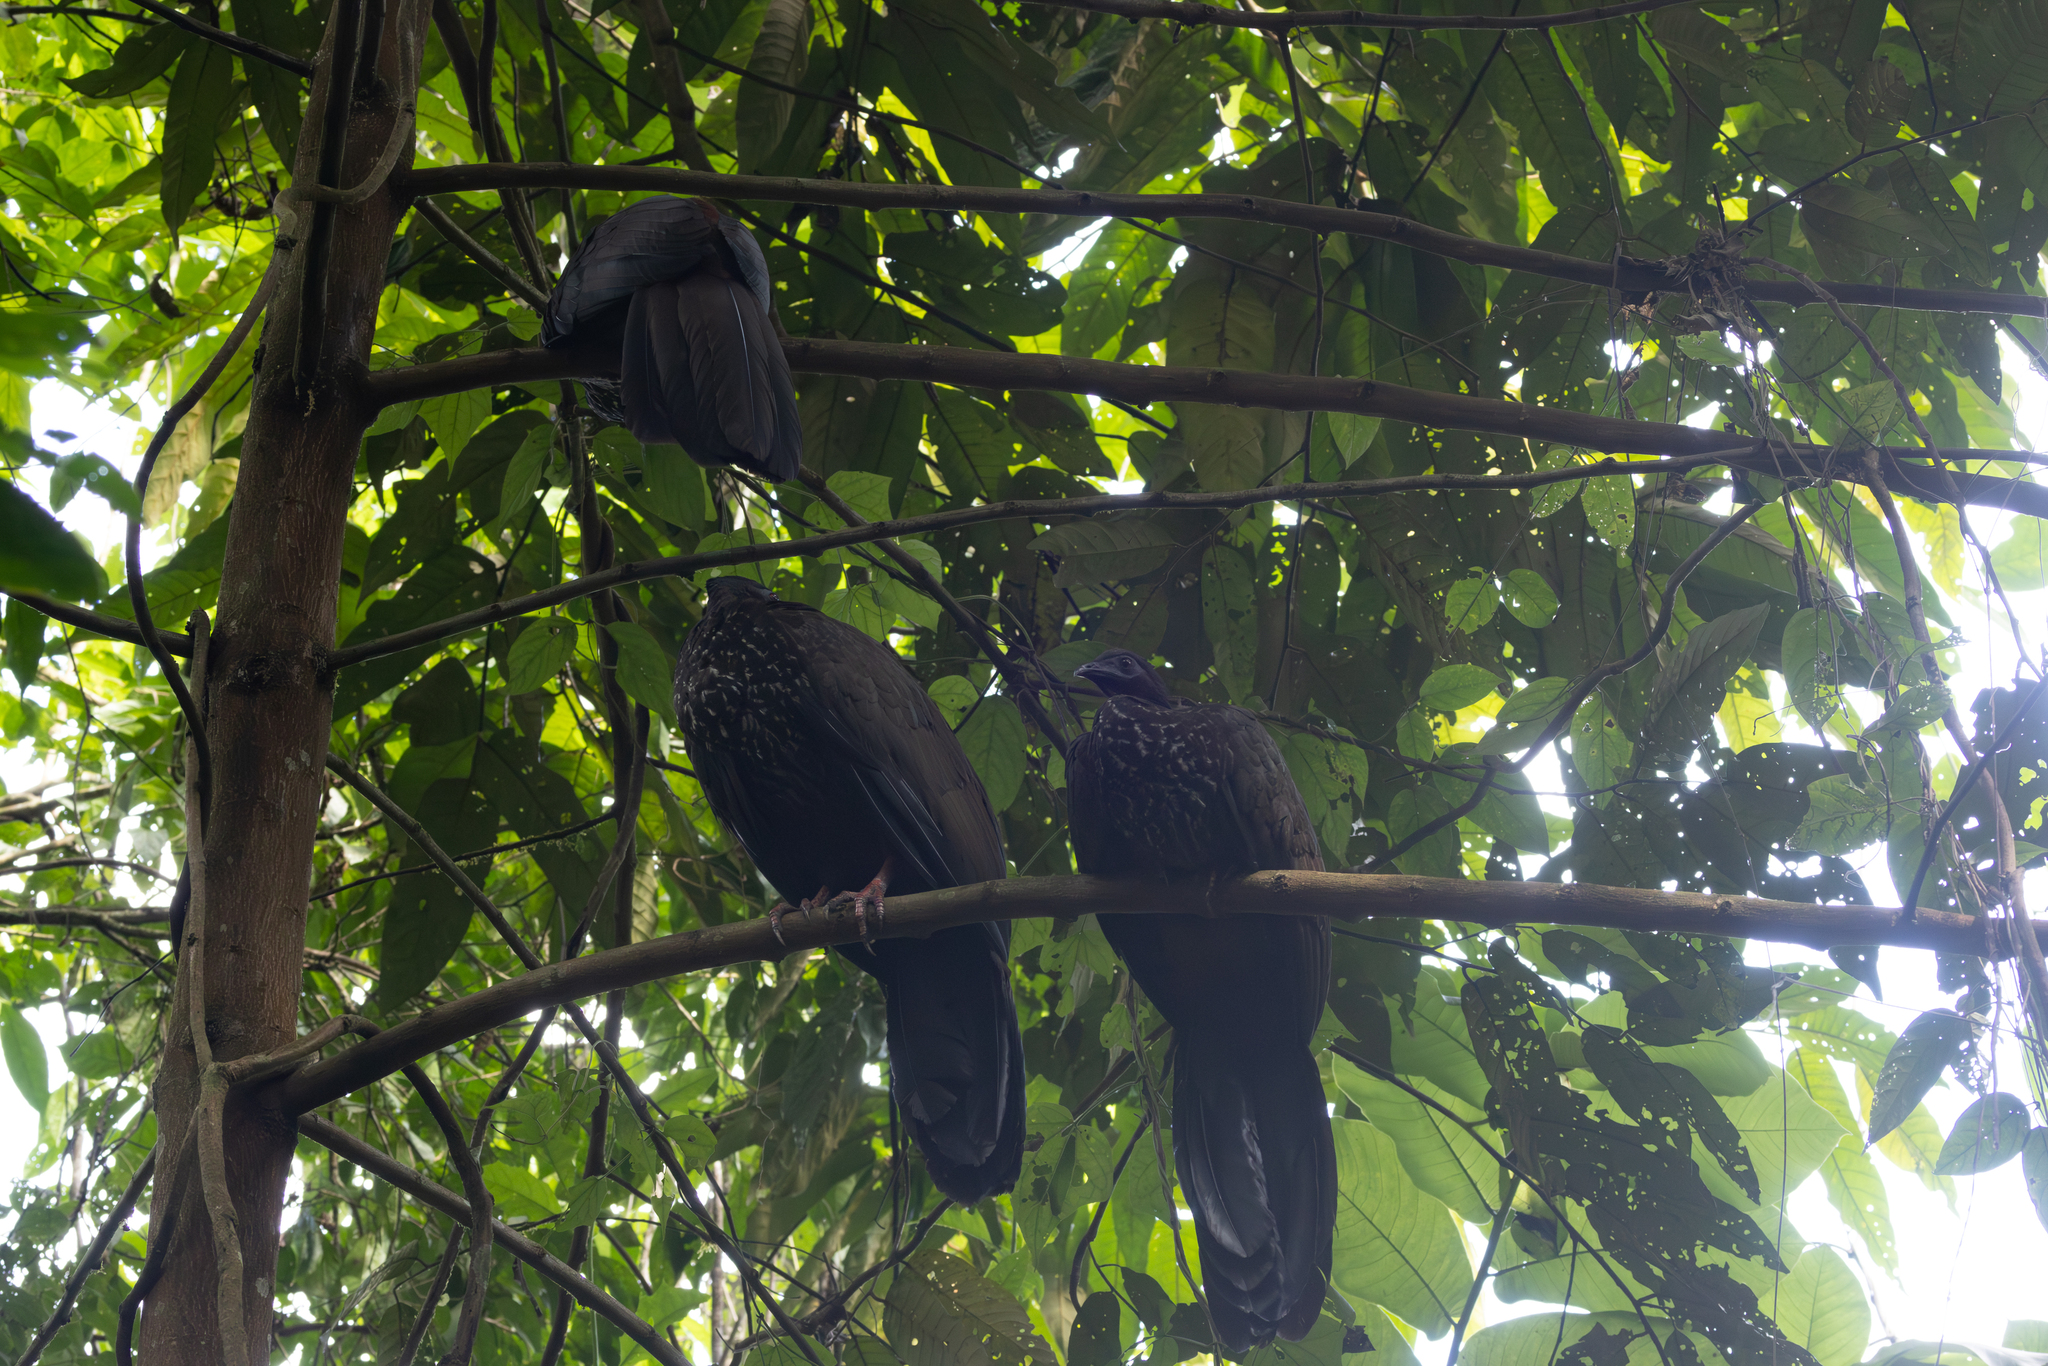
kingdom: Animalia
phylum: Chordata
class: Aves
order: Galliformes
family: Cracidae
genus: Penelope
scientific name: Penelope purpurascens
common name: Crested guan
